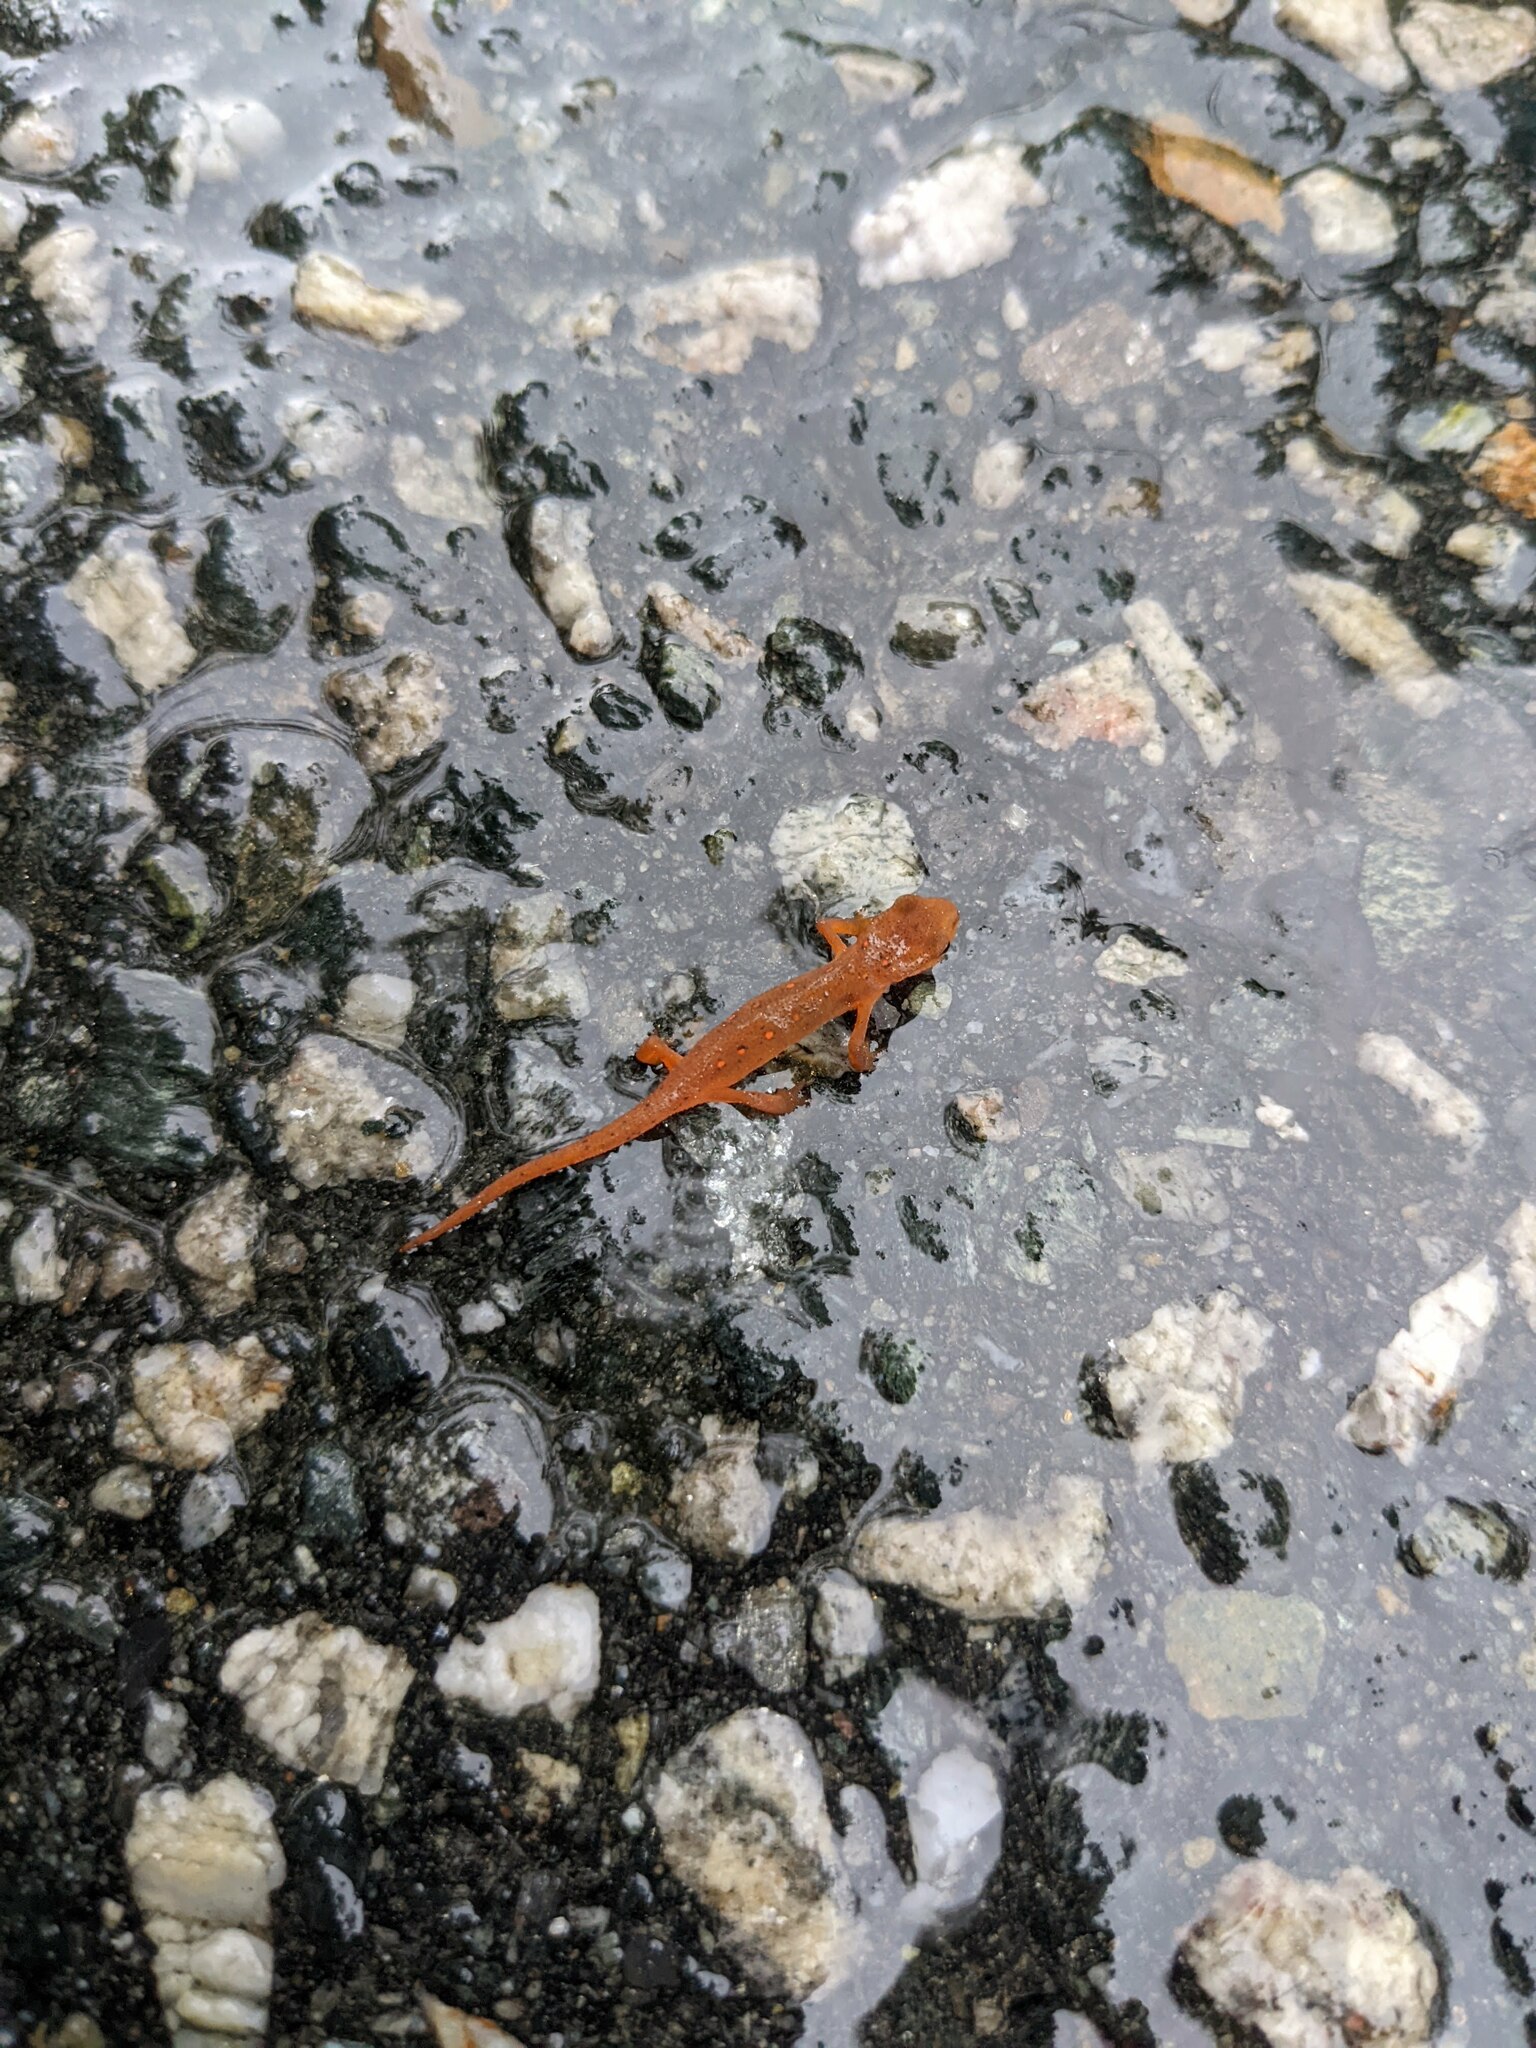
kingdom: Animalia
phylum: Chordata
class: Amphibia
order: Caudata
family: Salamandridae
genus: Notophthalmus
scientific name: Notophthalmus viridescens
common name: Eastern newt
